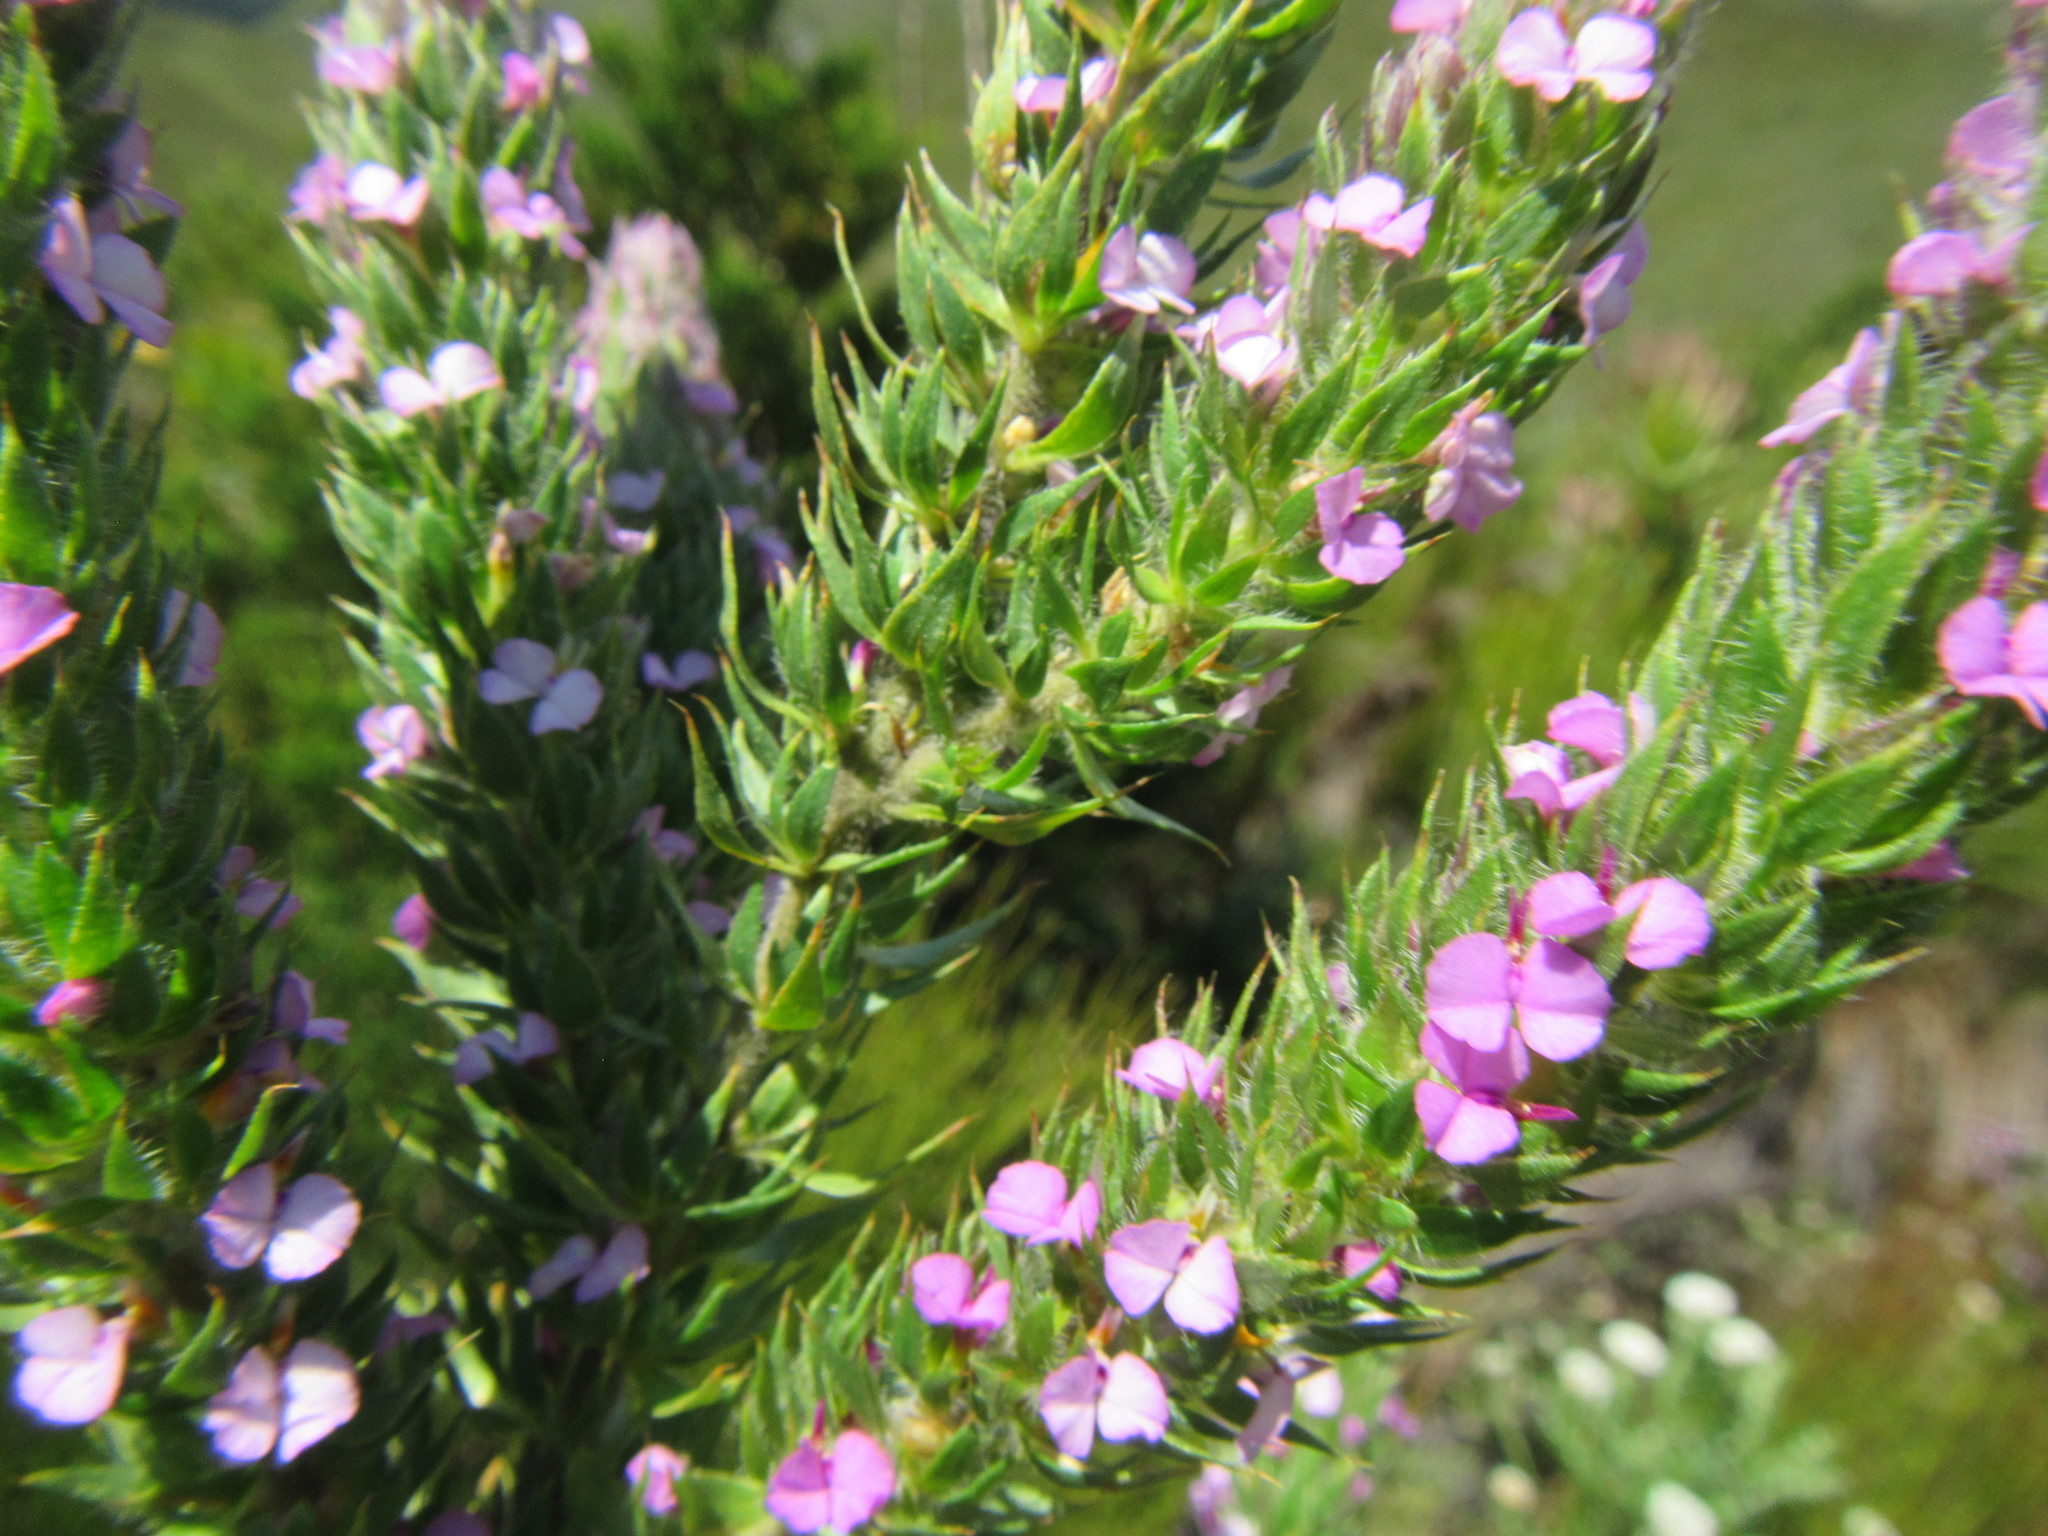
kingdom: Plantae
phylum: Tracheophyta
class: Magnoliopsida
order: Fabales
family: Polygalaceae
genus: Muraltia
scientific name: Muraltia vulpina
